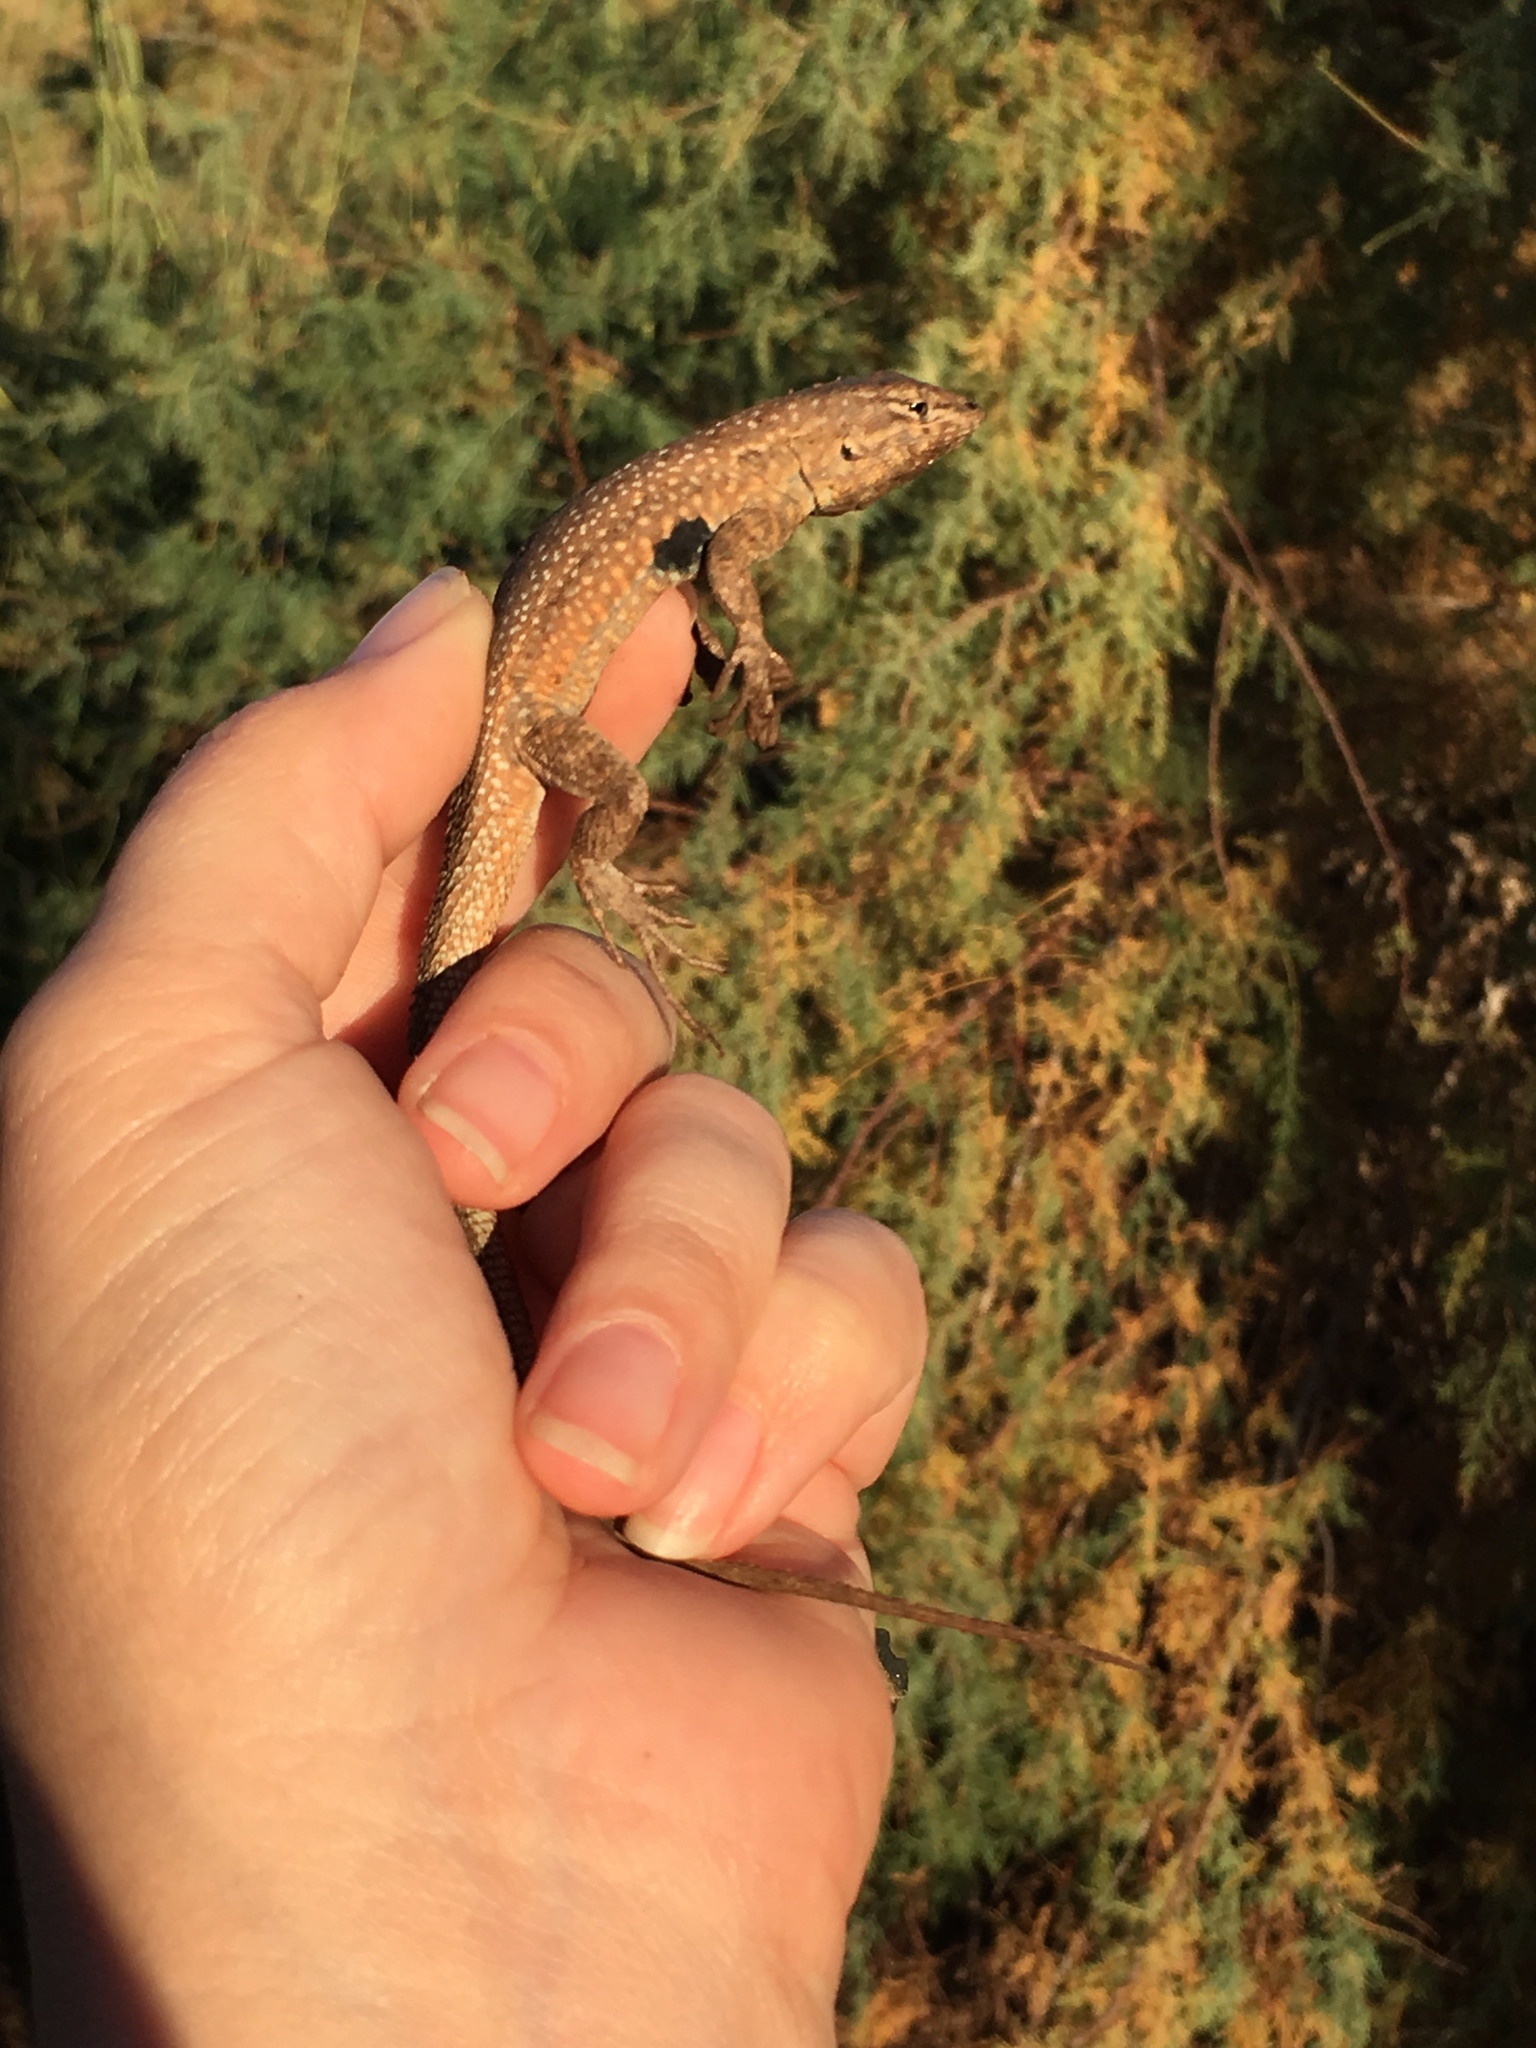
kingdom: Animalia
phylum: Chordata
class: Squamata
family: Phrynosomatidae
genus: Uta
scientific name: Uta stansburiana
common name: Side-blotched lizard
